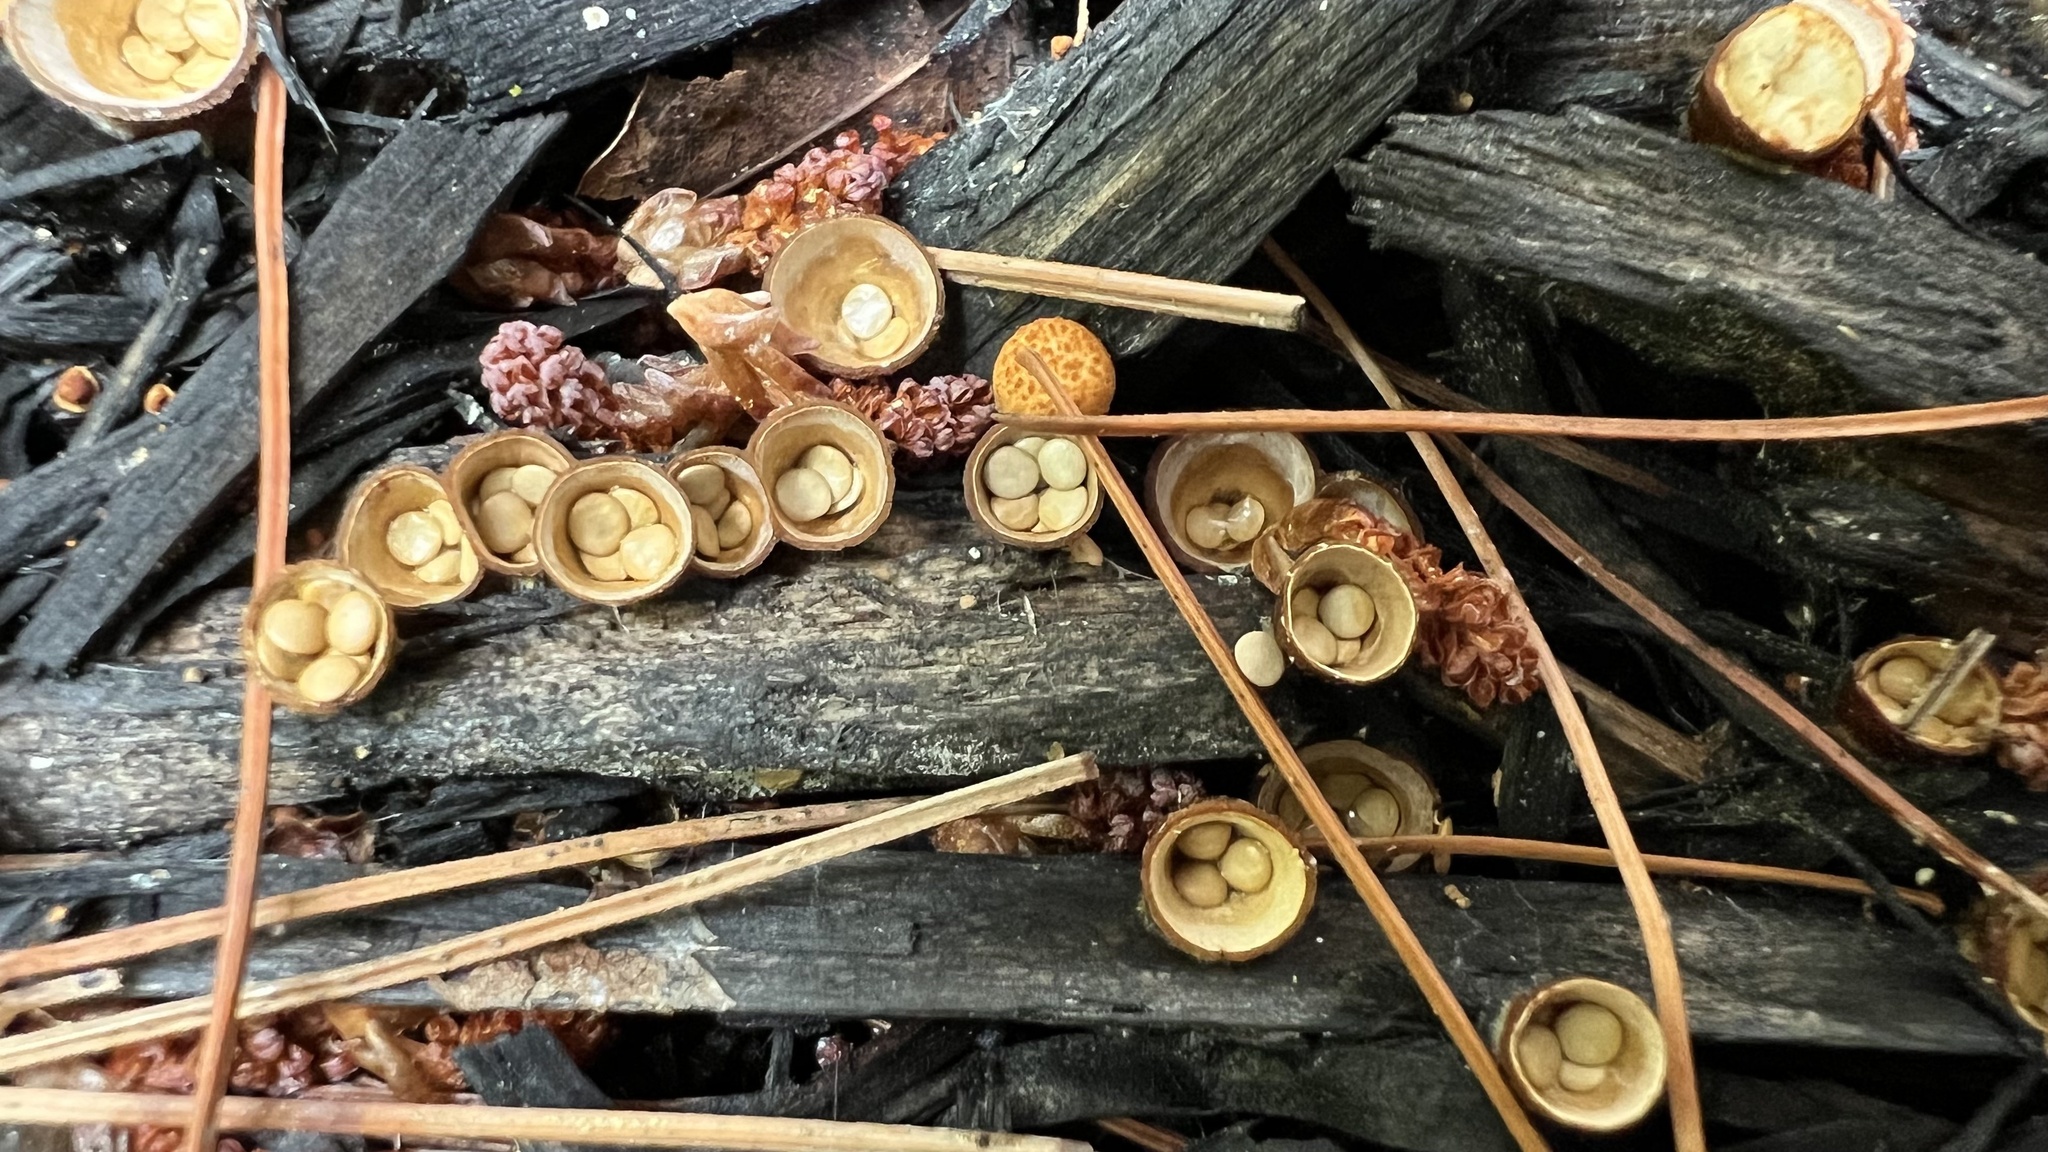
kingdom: Fungi
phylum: Basidiomycota
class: Agaricomycetes
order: Agaricales
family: Nidulariaceae
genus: Crucibulum
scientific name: Crucibulum laeve
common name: Common bird's nest
